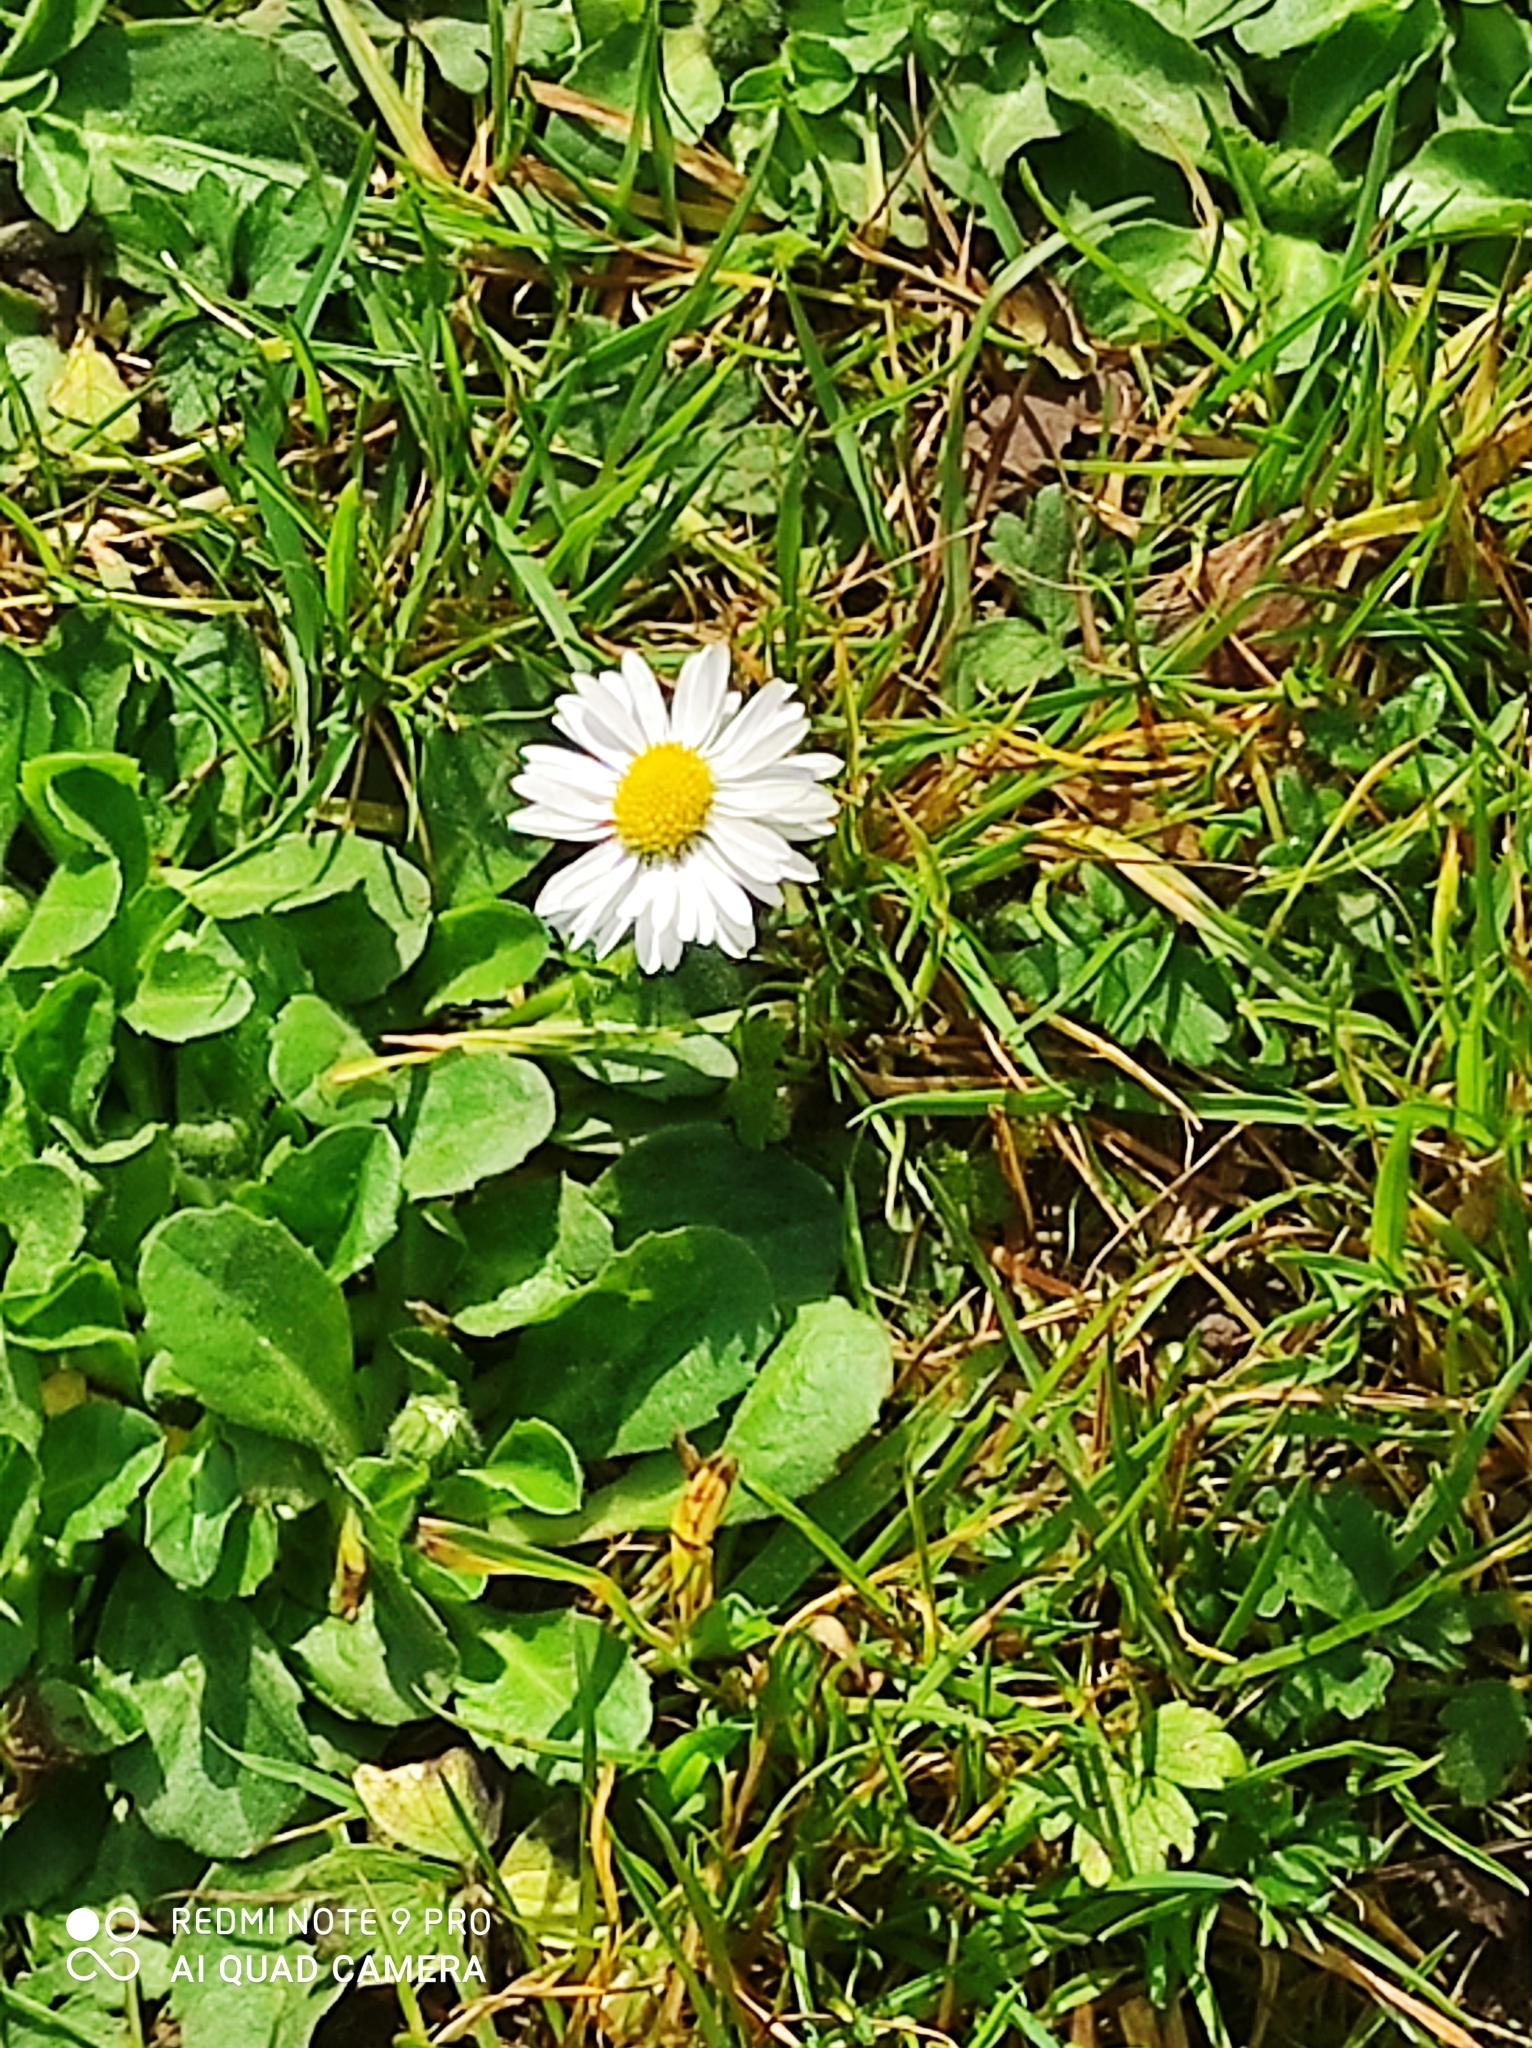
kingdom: Plantae
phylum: Tracheophyta
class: Magnoliopsida
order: Asterales
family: Asteraceae
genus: Bellis
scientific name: Bellis perennis
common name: Lawndaisy
